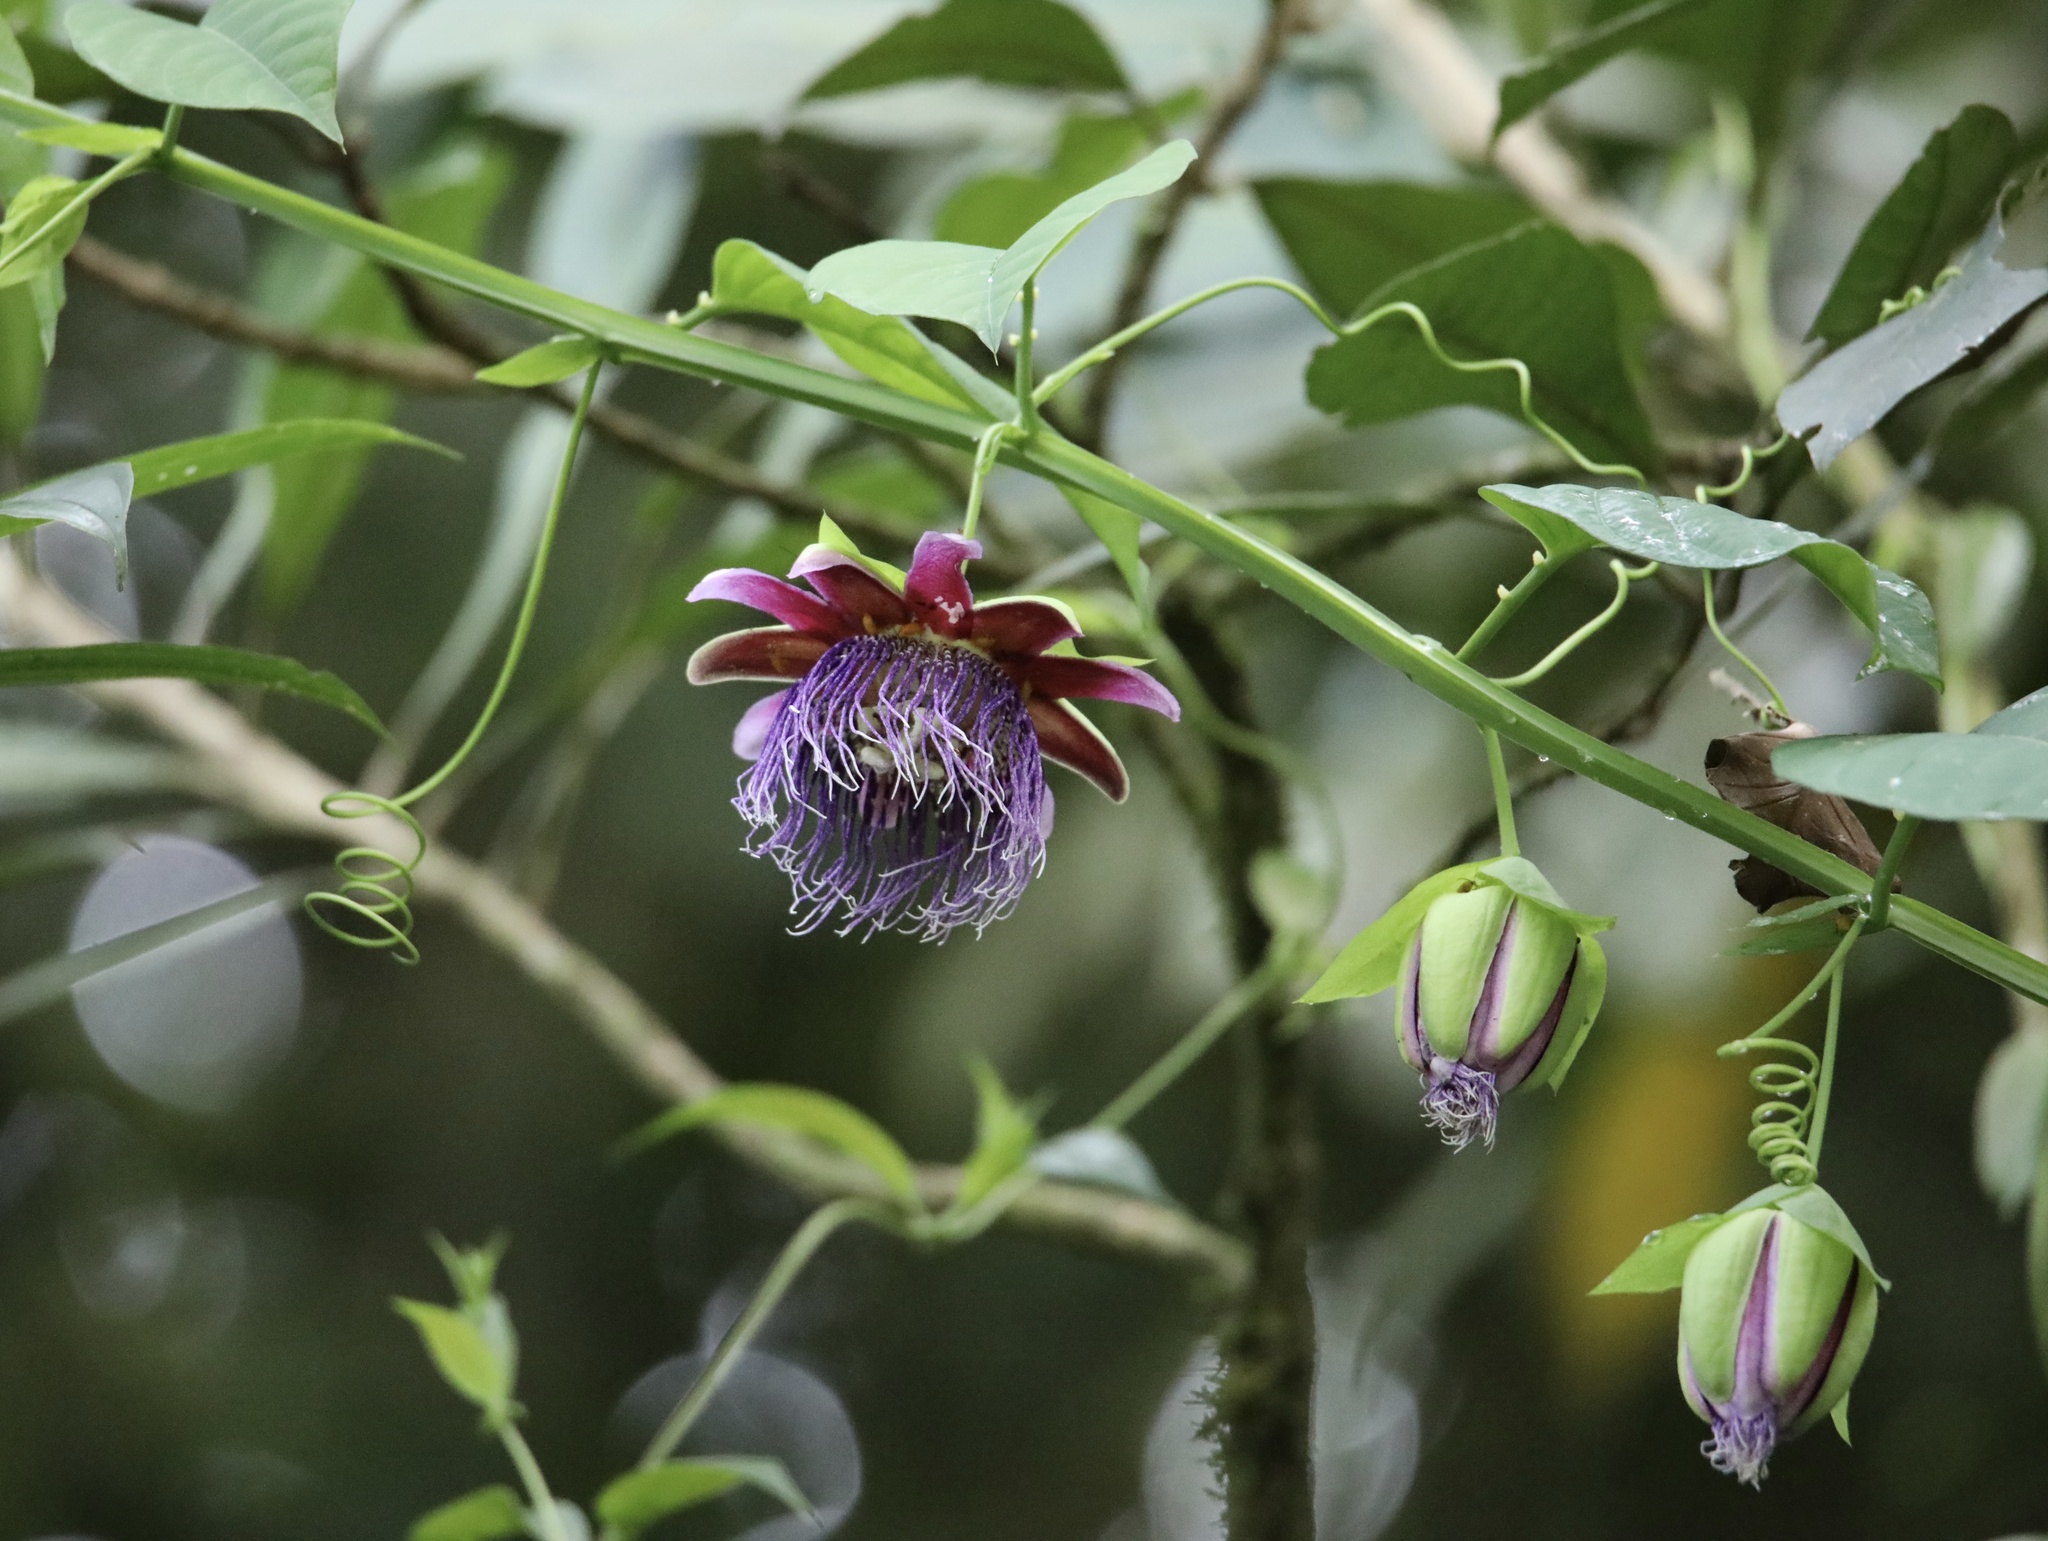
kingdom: Plantae
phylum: Tracheophyta
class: Magnoliopsida
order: Malpighiales
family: Passifloraceae
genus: Passiflora
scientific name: Passiflora quadrangularis
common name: Giant granadilla
